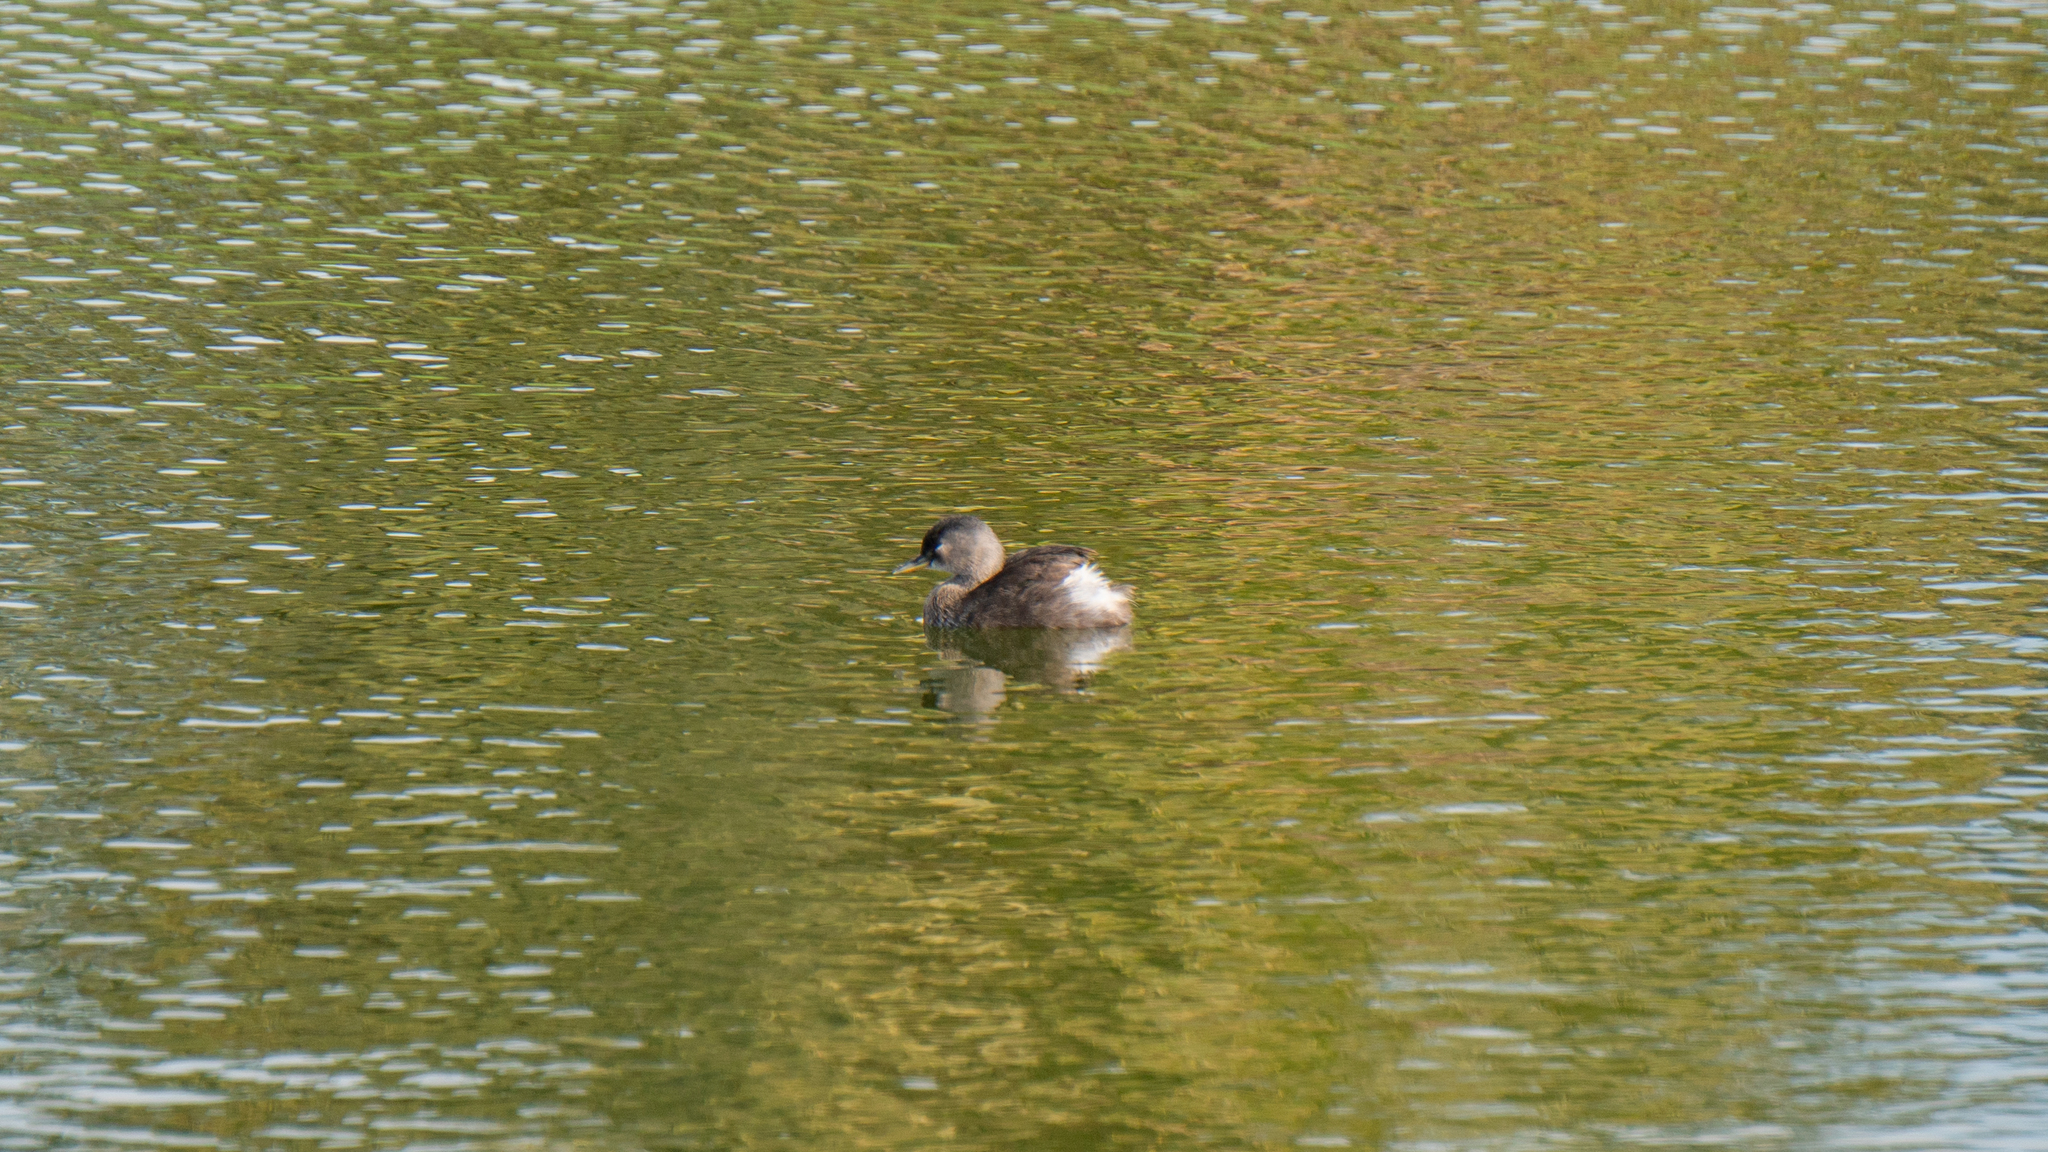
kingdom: Animalia
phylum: Chordata
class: Aves
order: Podicipediformes
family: Podicipedidae
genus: Tachybaptus
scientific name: Tachybaptus dominicus
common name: Least grebe
